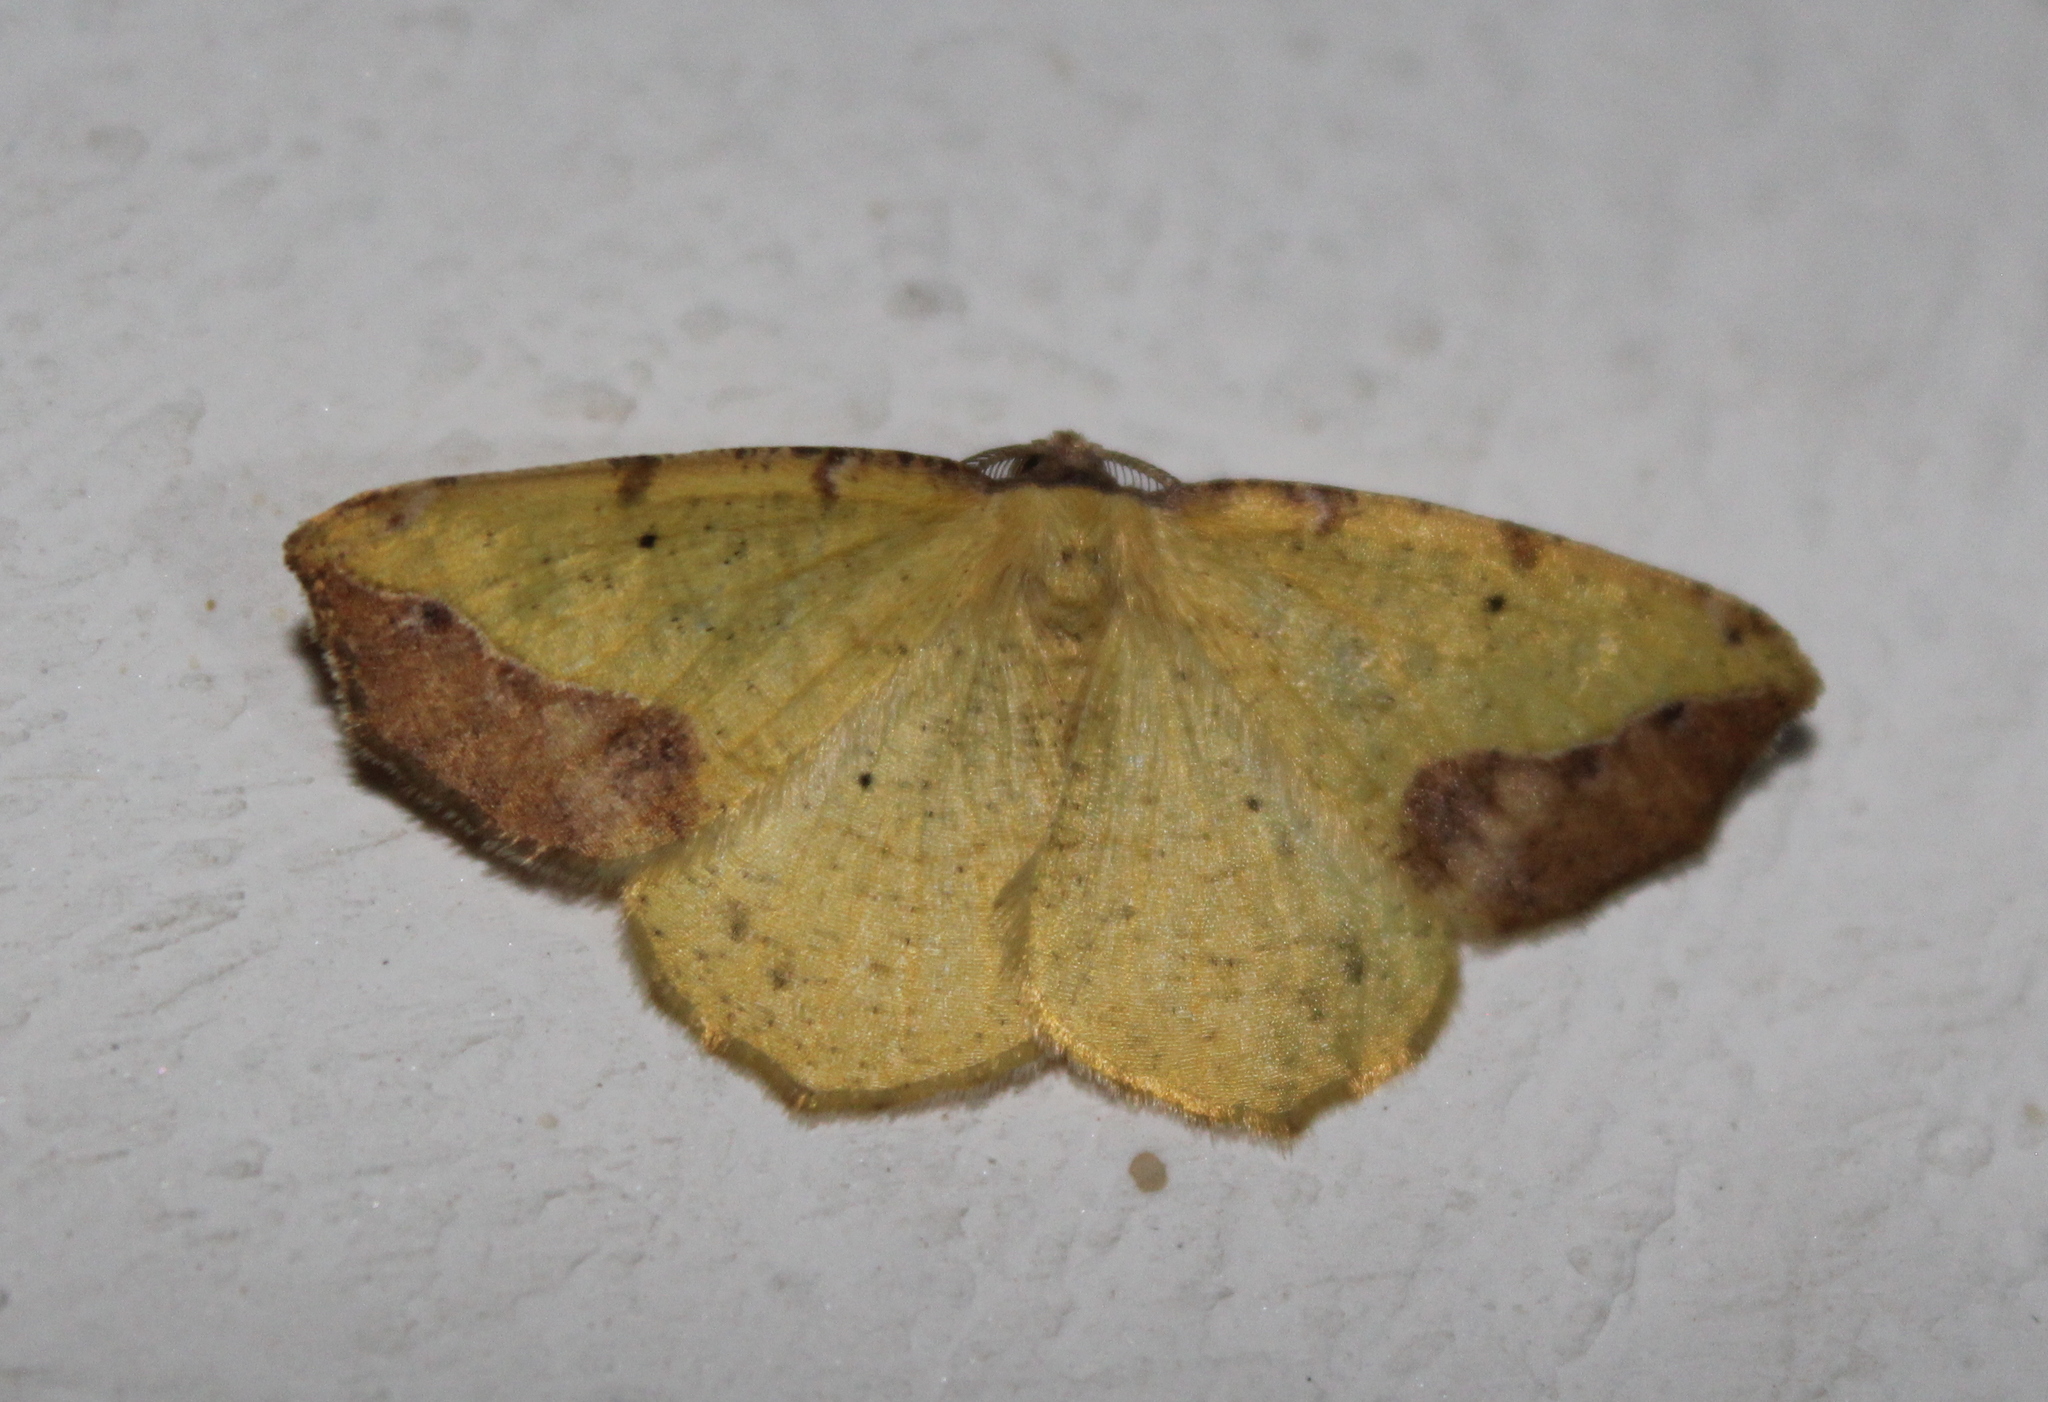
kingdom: Animalia
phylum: Arthropoda
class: Insecta
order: Lepidoptera
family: Geometridae
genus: Eusarca
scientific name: Eusarca asteria
